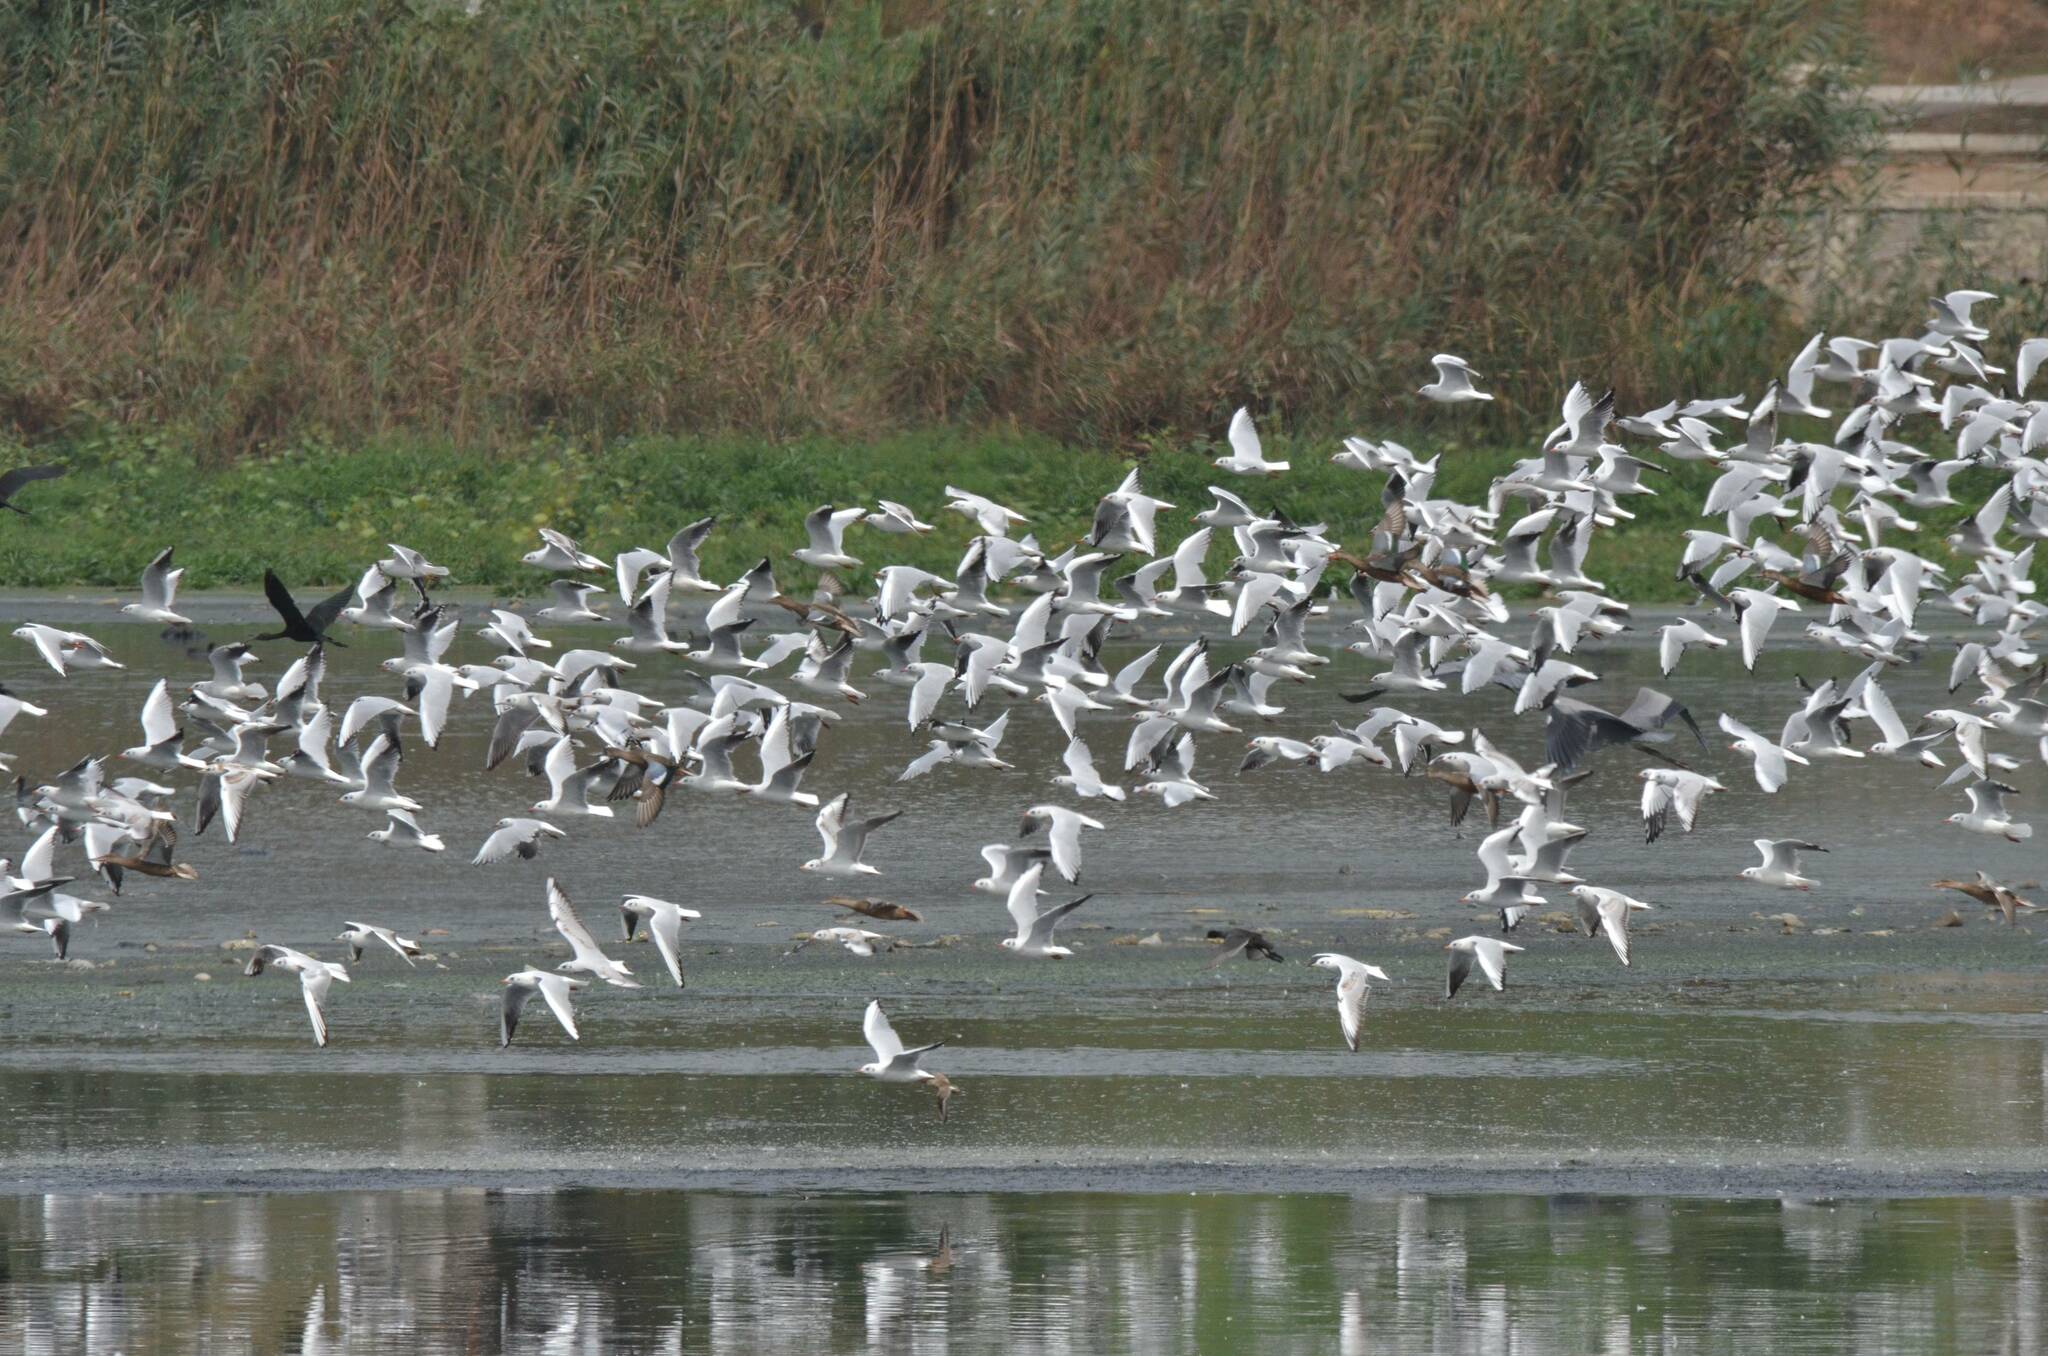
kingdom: Animalia
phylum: Chordata
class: Aves
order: Charadriiformes
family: Laridae
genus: Chroicocephalus
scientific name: Chroicocephalus ridibundus
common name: Black-headed gull
